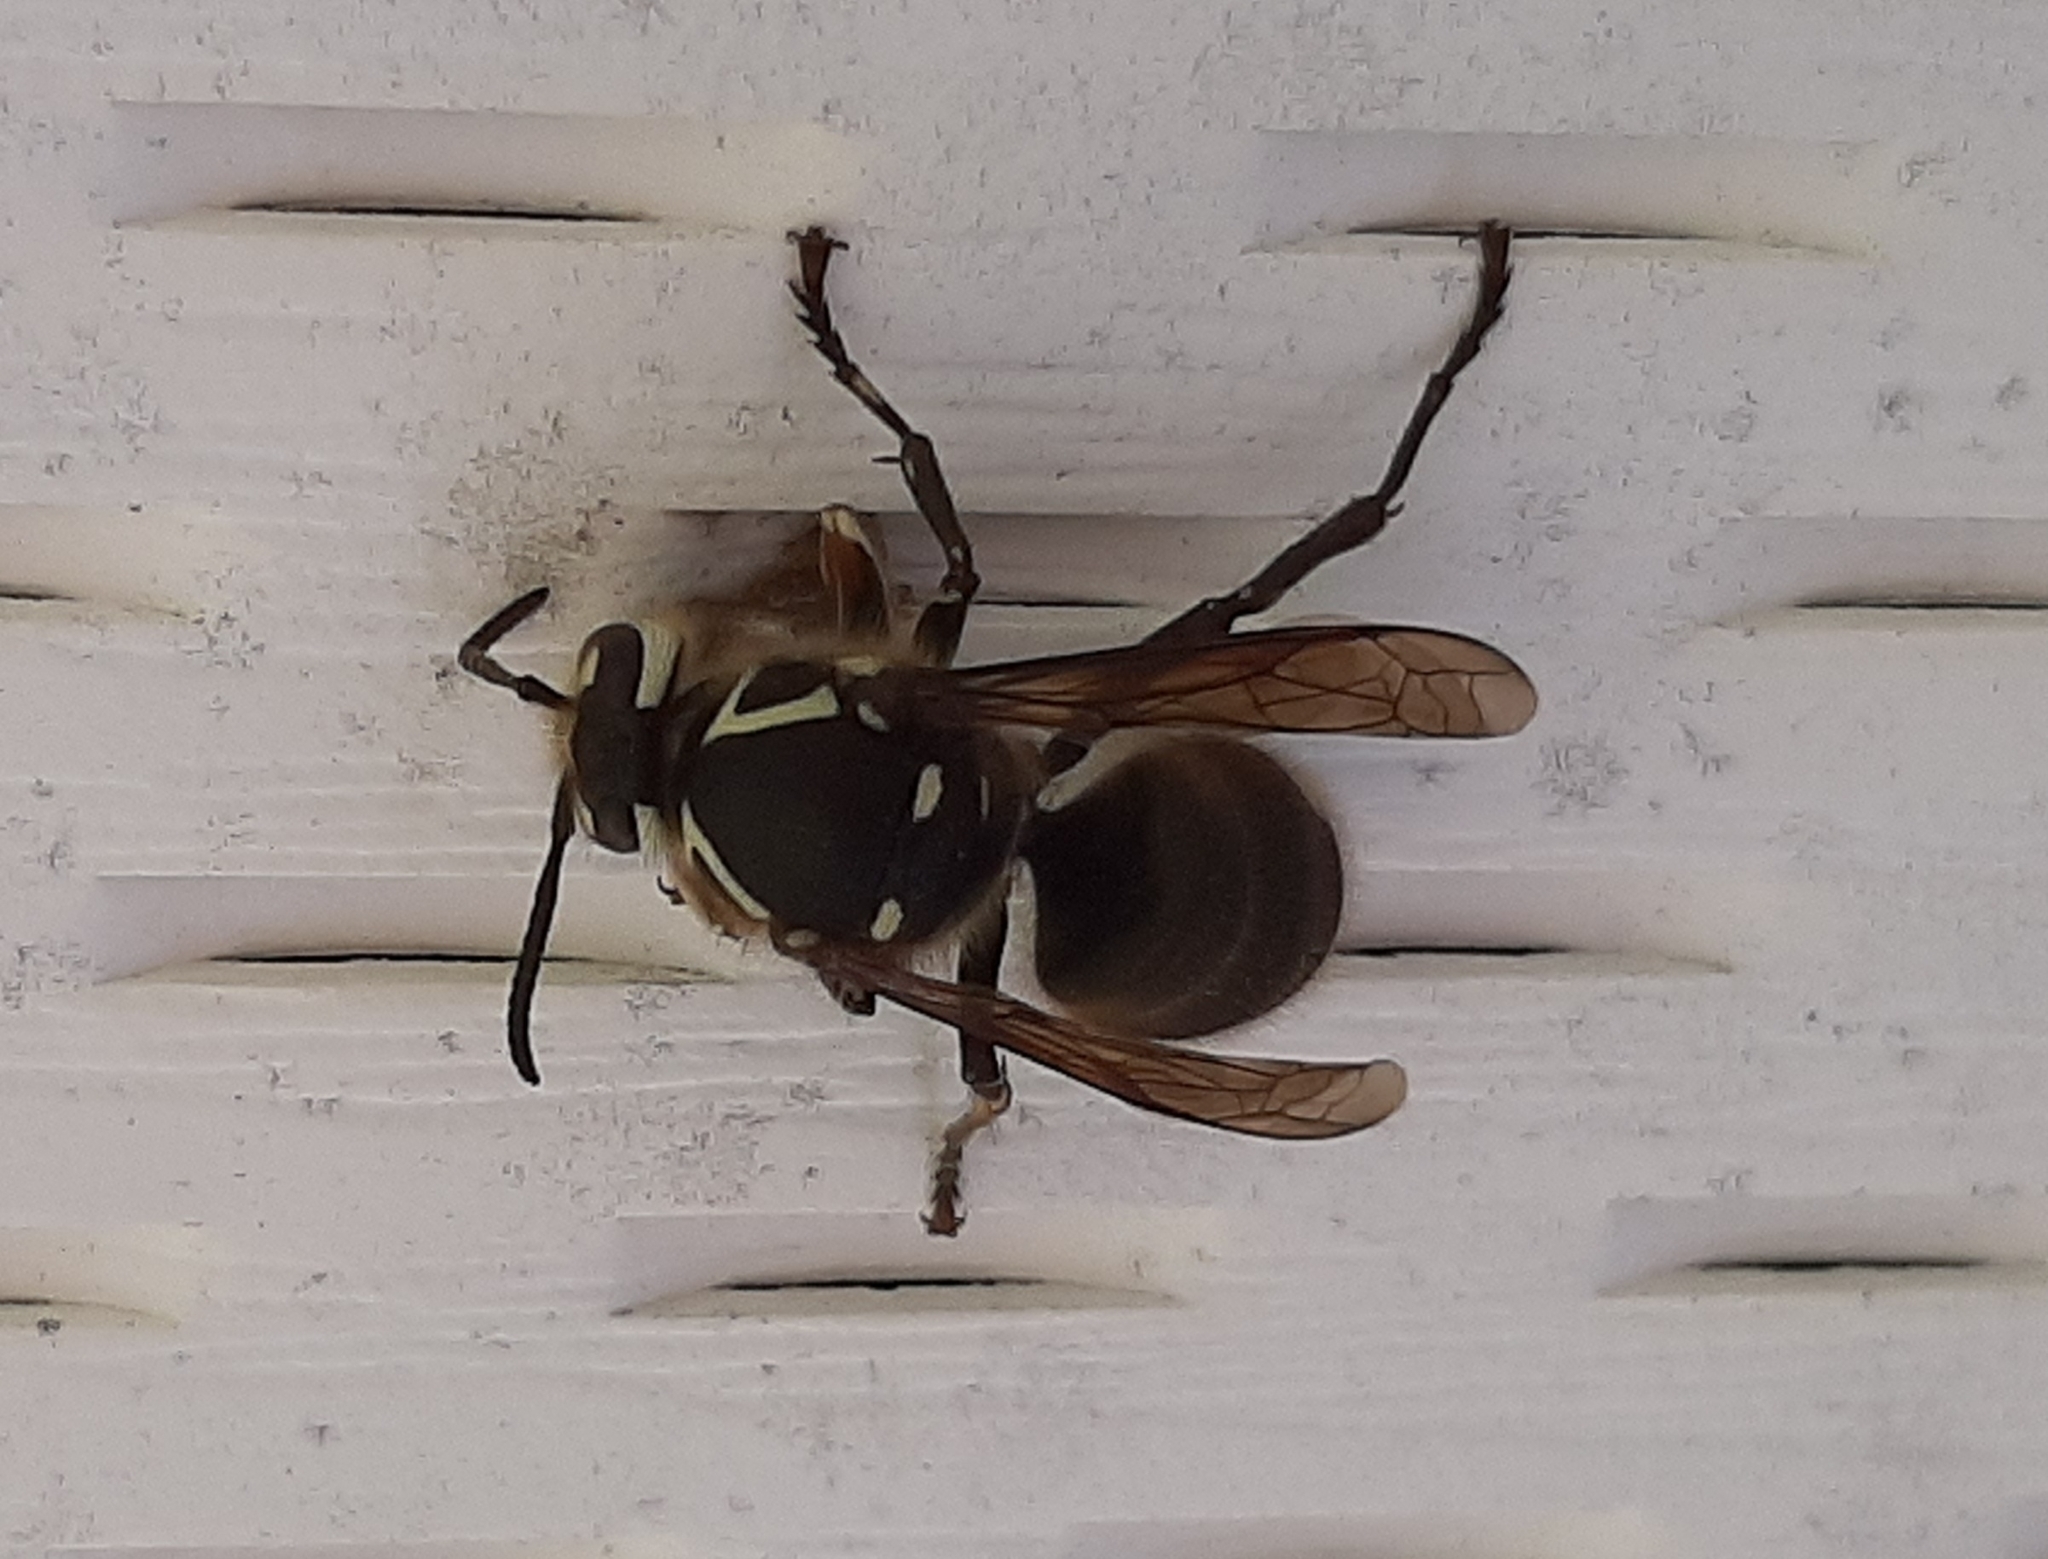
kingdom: Animalia
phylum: Arthropoda
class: Insecta
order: Hymenoptera
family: Vespidae
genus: Dolichovespula
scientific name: Dolichovespula maculata
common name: Bald-faced hornet
